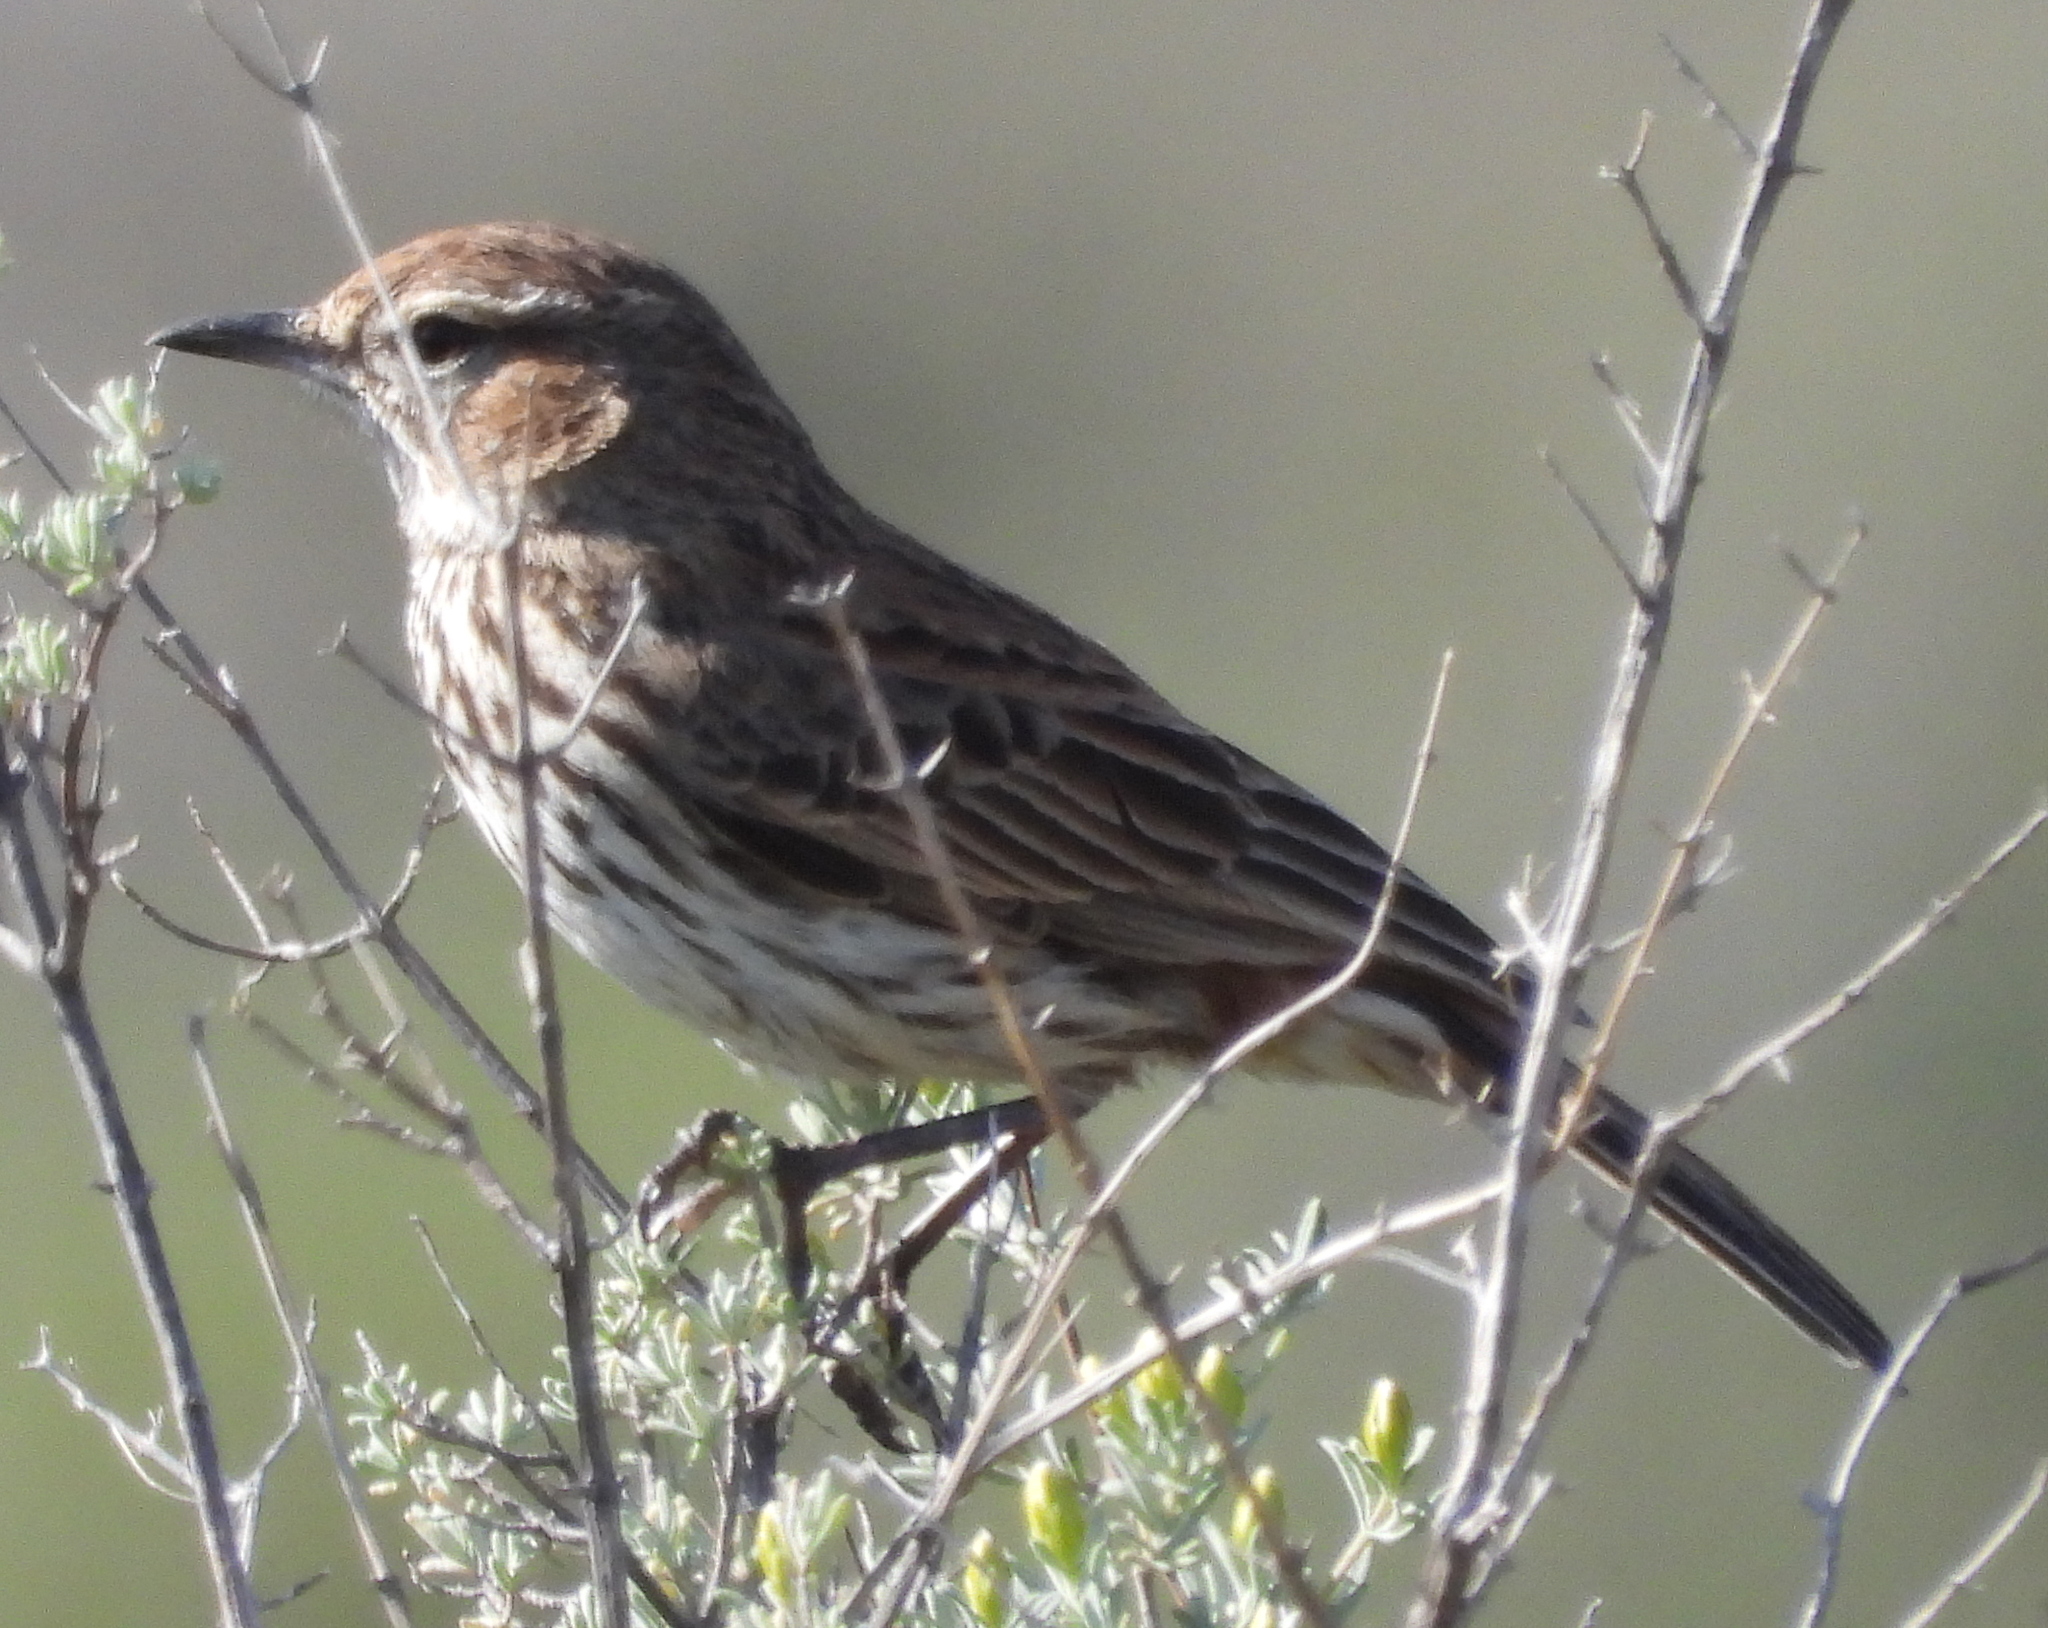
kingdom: Animalia
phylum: Chordata
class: Aves
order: Passeriformes
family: Alaudidae
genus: Calendulauda
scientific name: Calendulauda albescens
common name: Karoo lark
